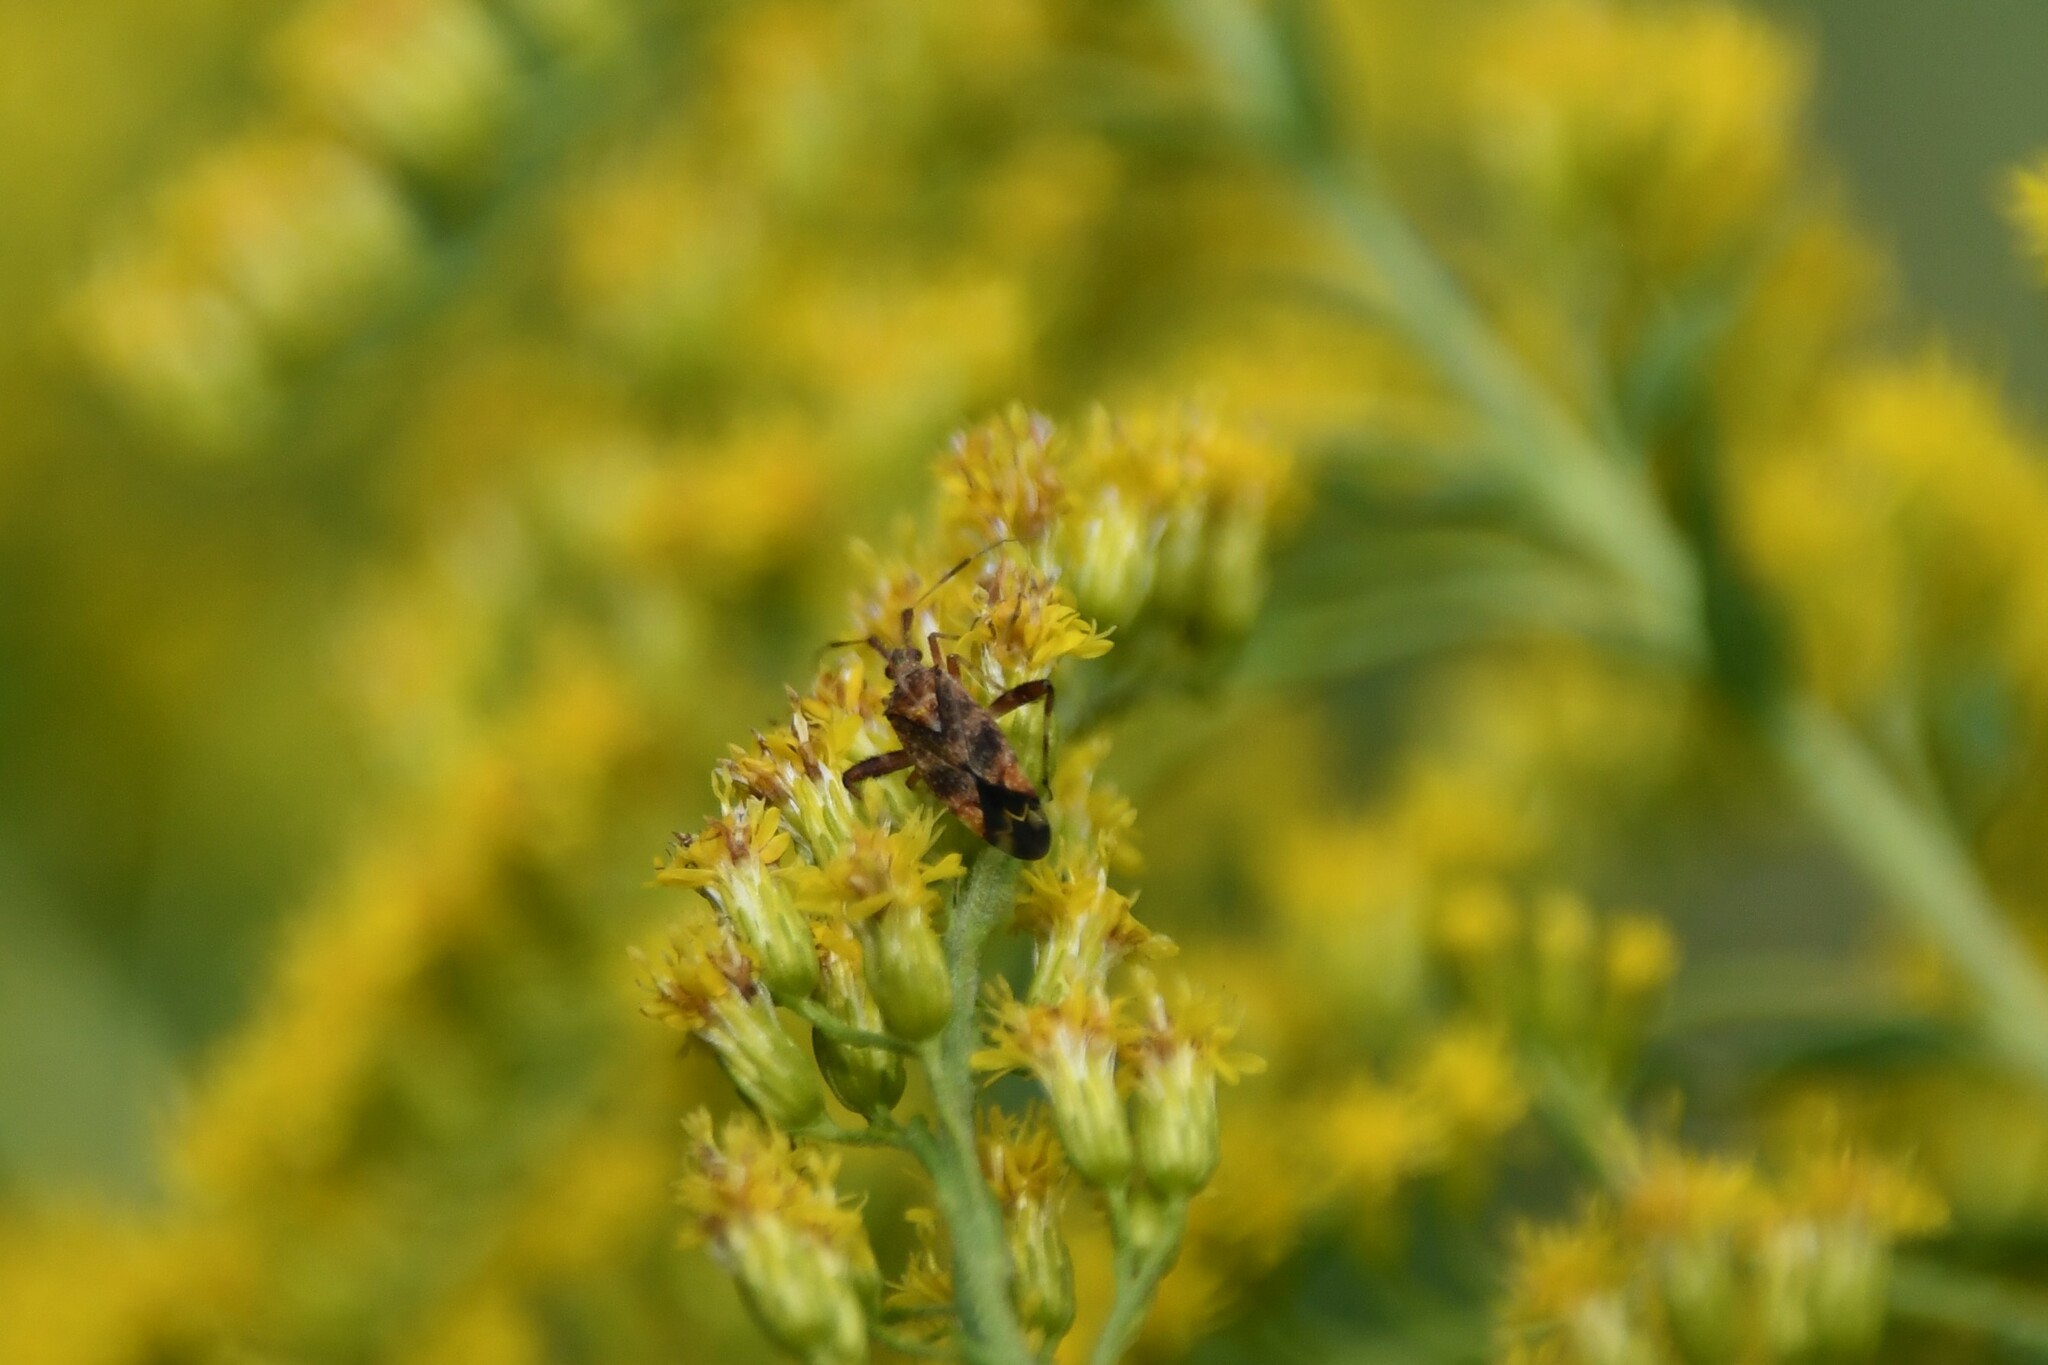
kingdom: Animalia
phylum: Arthropoda
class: Insecta
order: Hemiptera
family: Miridae
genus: Neurocolpus
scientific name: Neurocolpus nubilus
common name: Clouded plant bug
